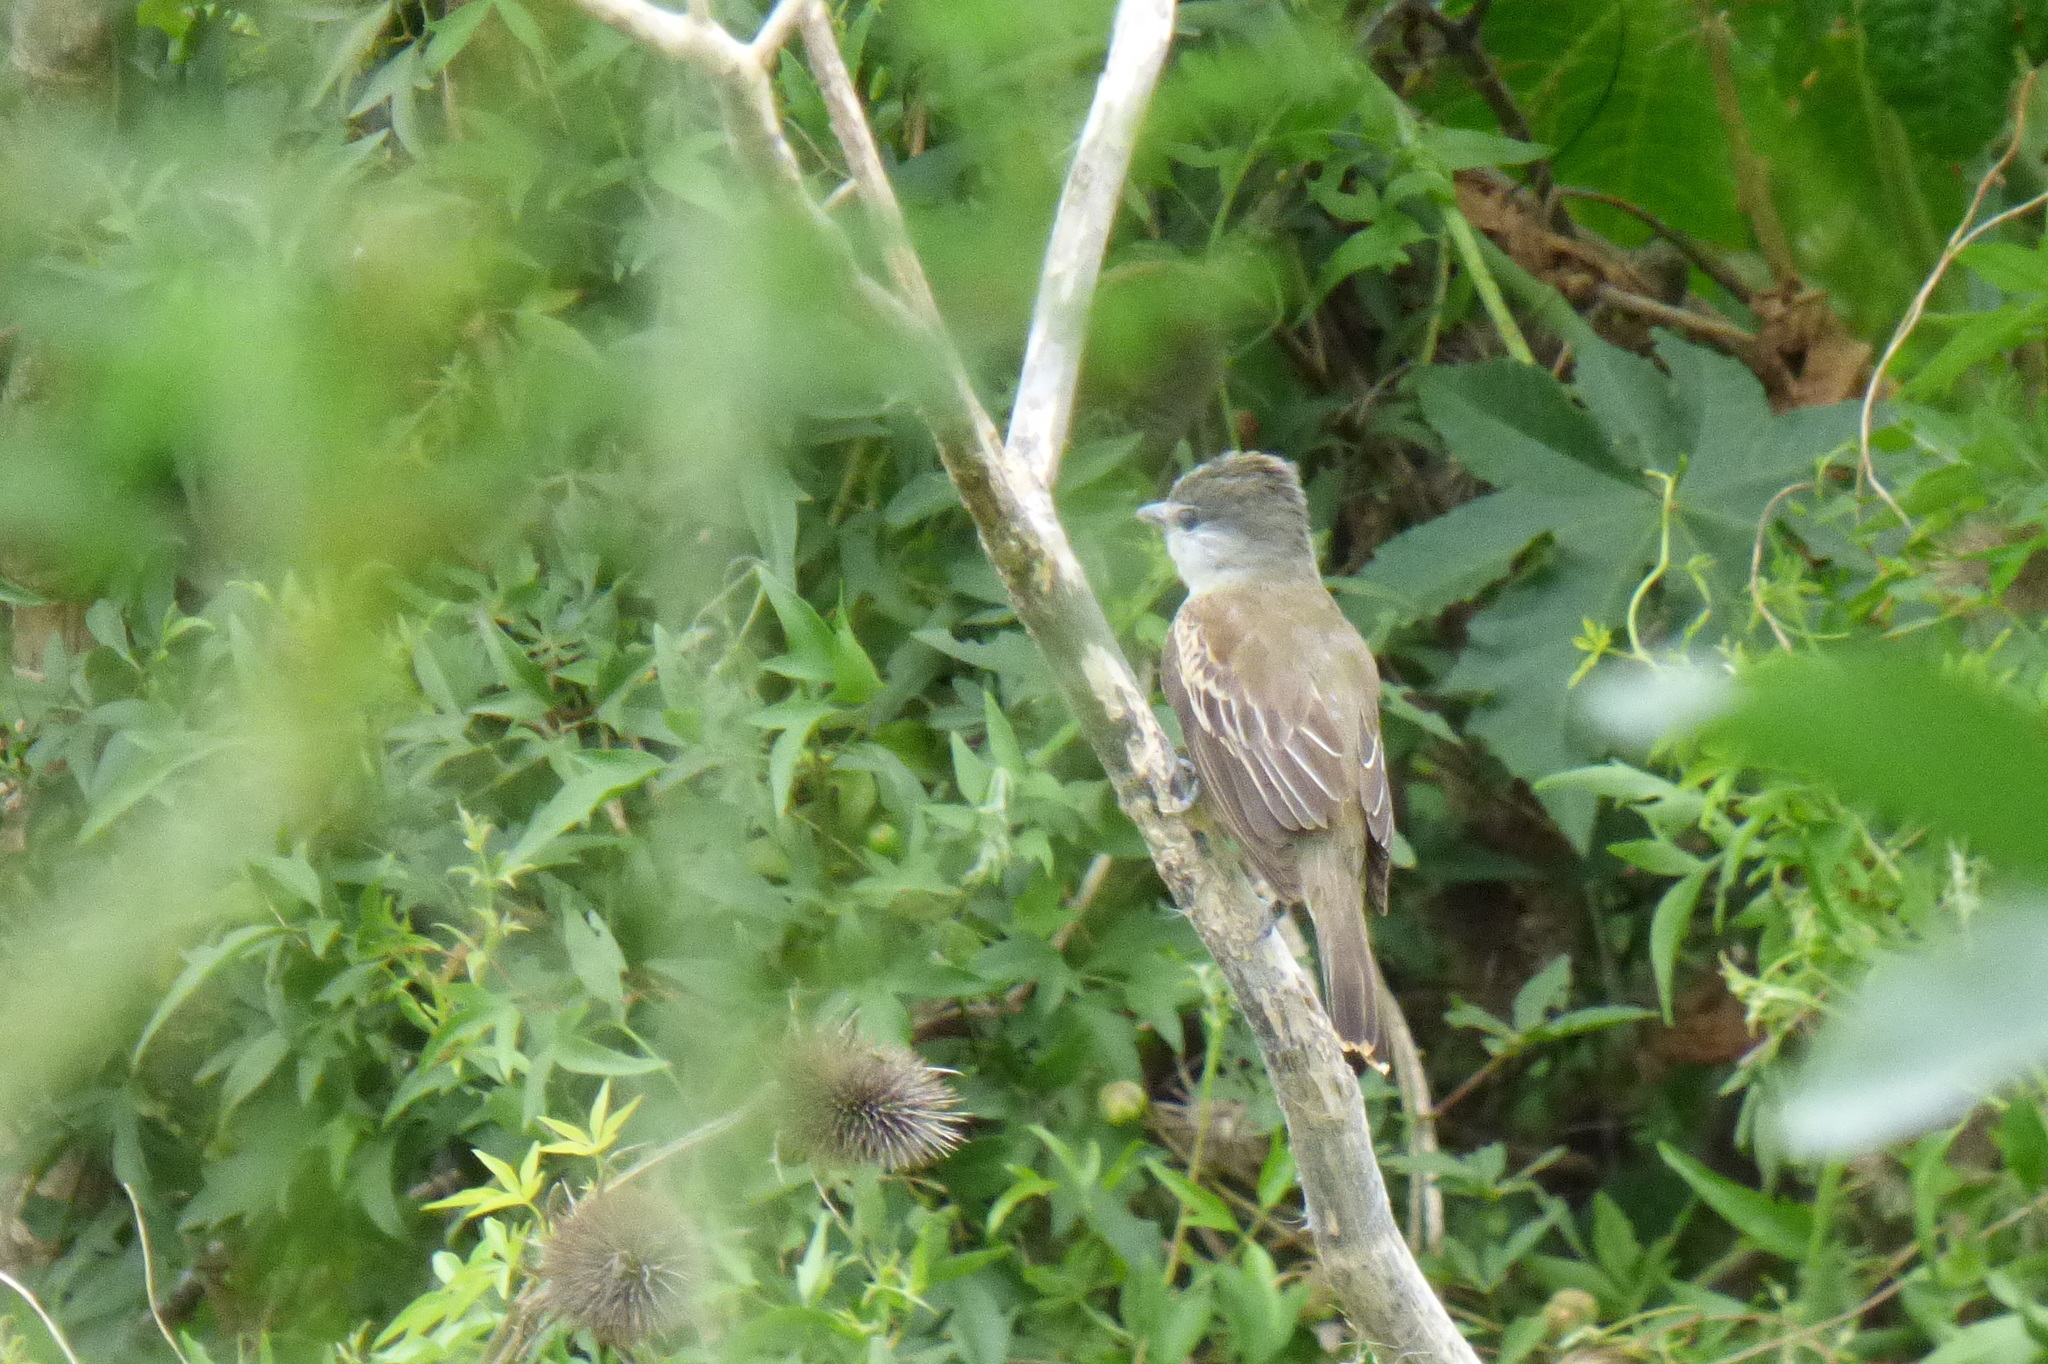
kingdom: Animalia
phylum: Chordata
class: Aves
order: Passeriformes
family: Cotingidae
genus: Pachyramphus
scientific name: Pachyramphus polychopterus
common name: White-winged becard
